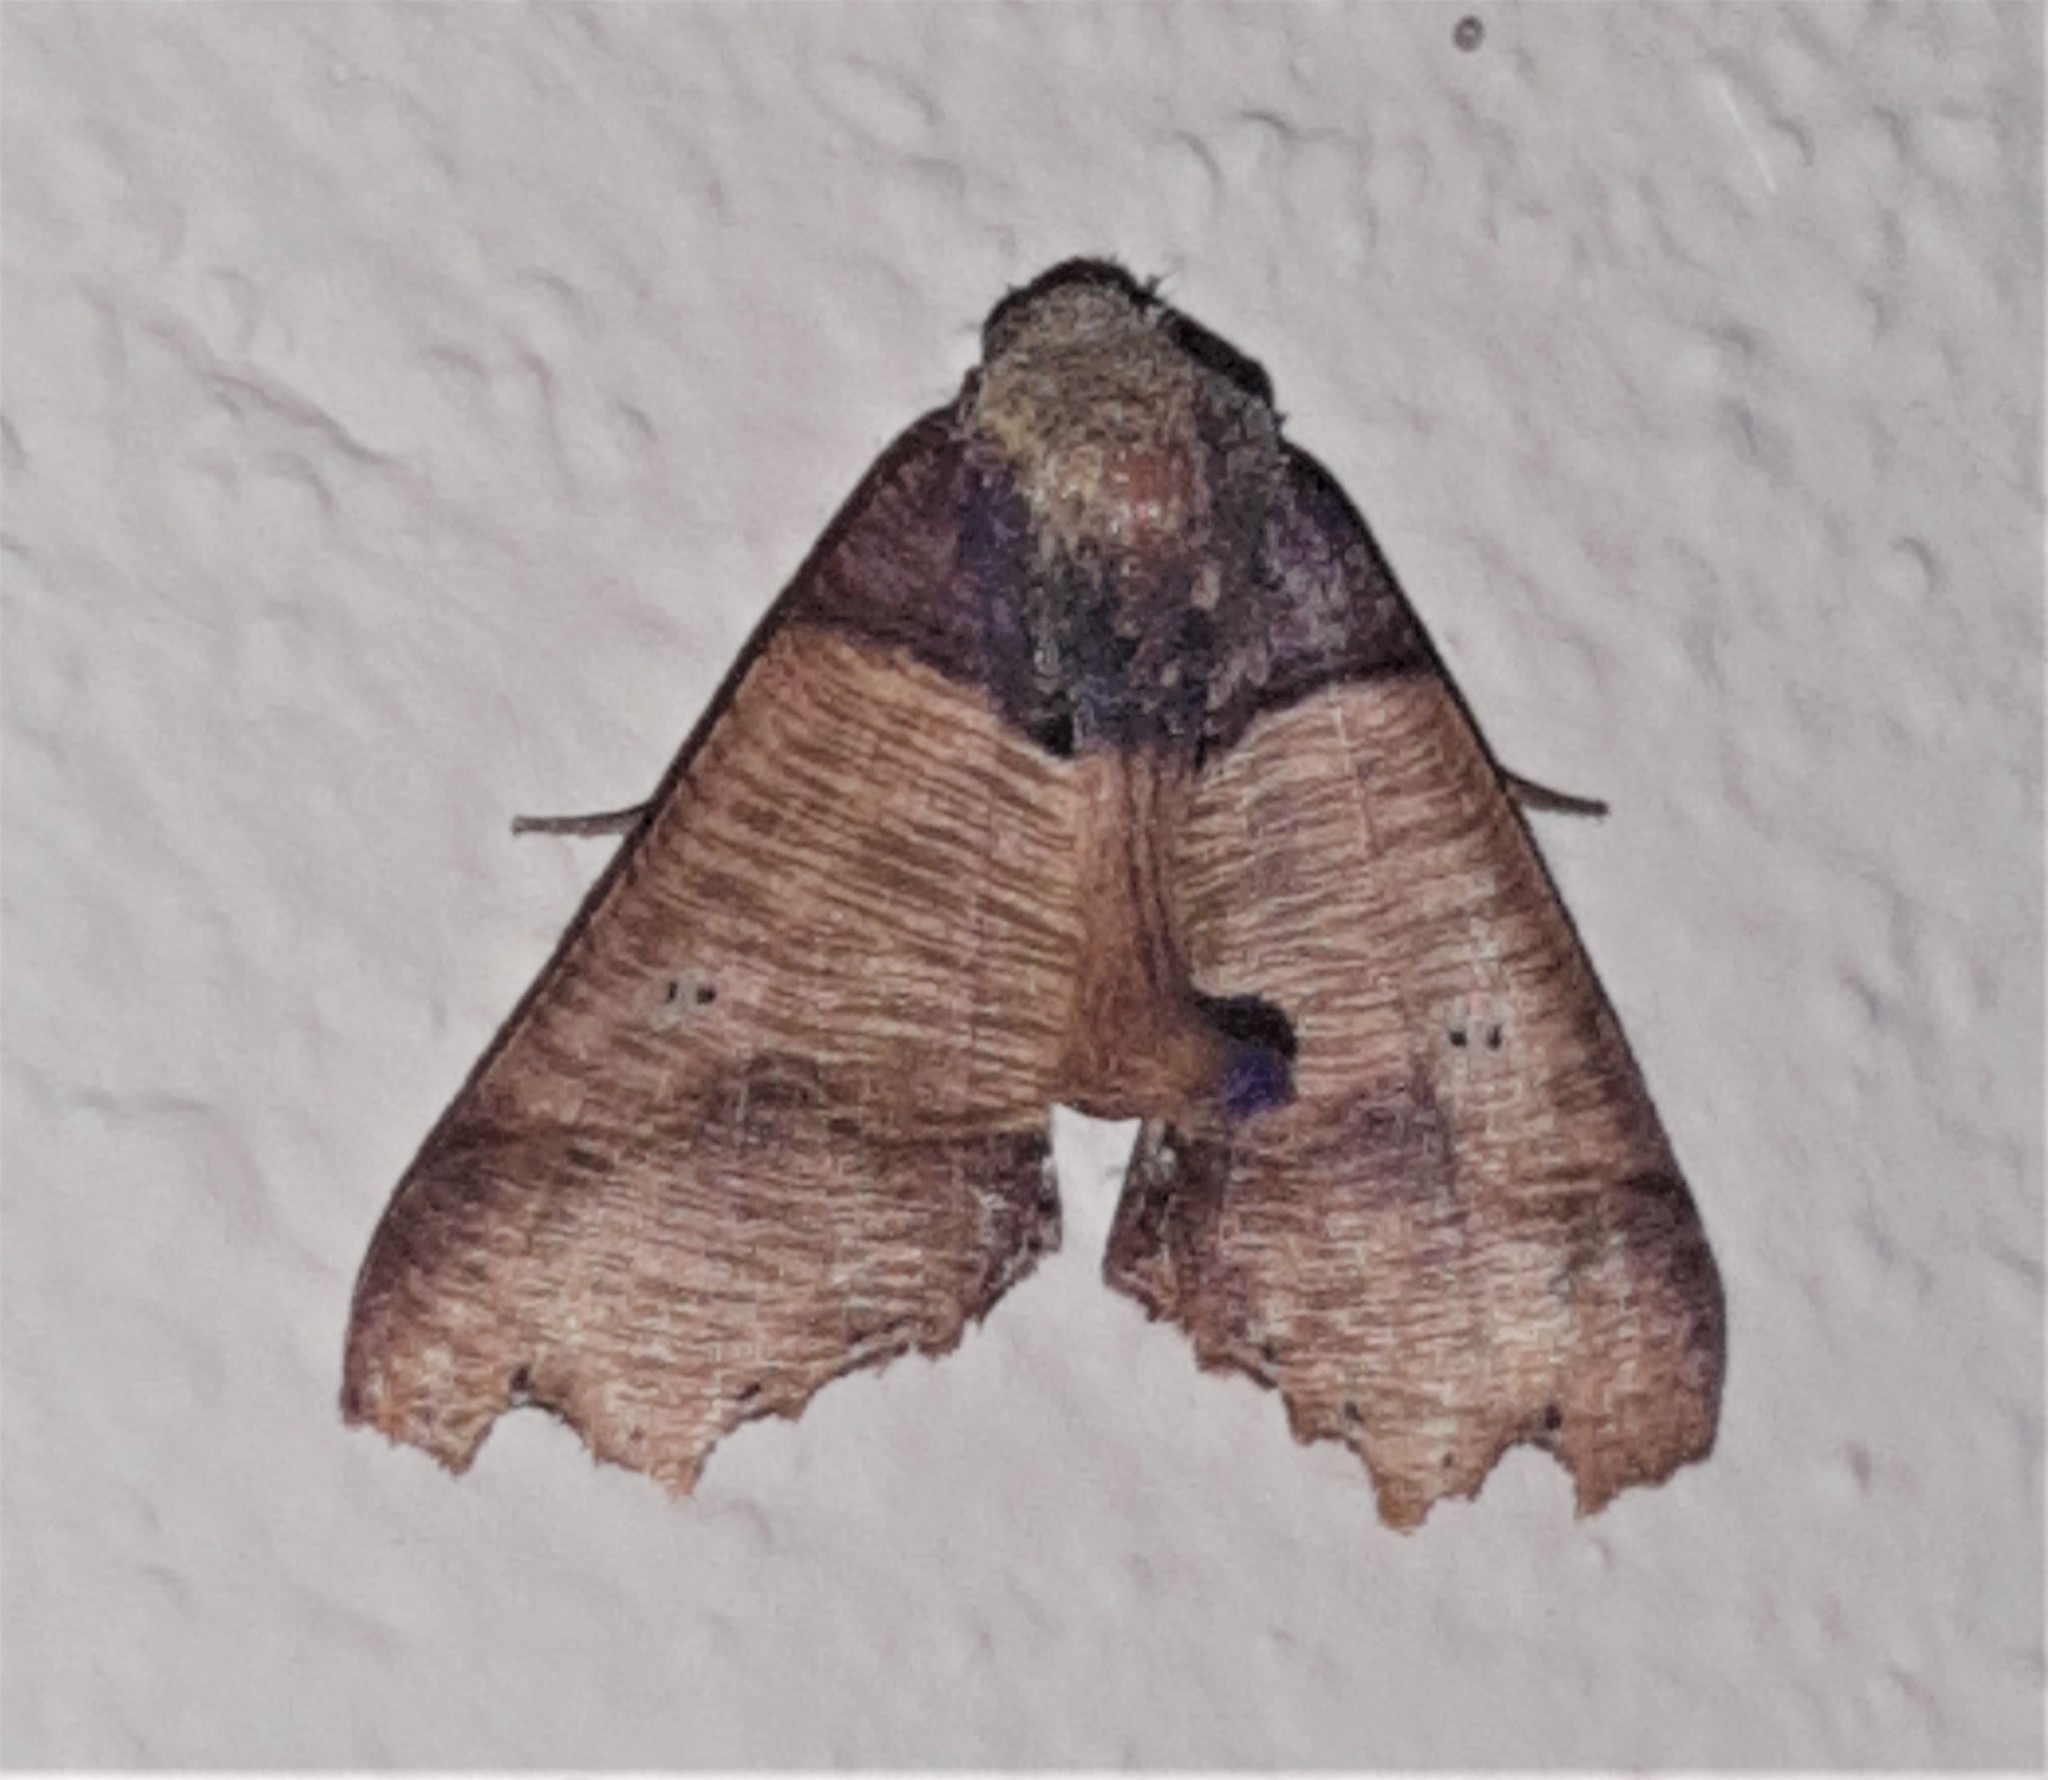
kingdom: Animalia
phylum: Arthropoda
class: Insecta
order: Lepidoptera
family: Geometridae
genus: Pero
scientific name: Pero polygonaria
